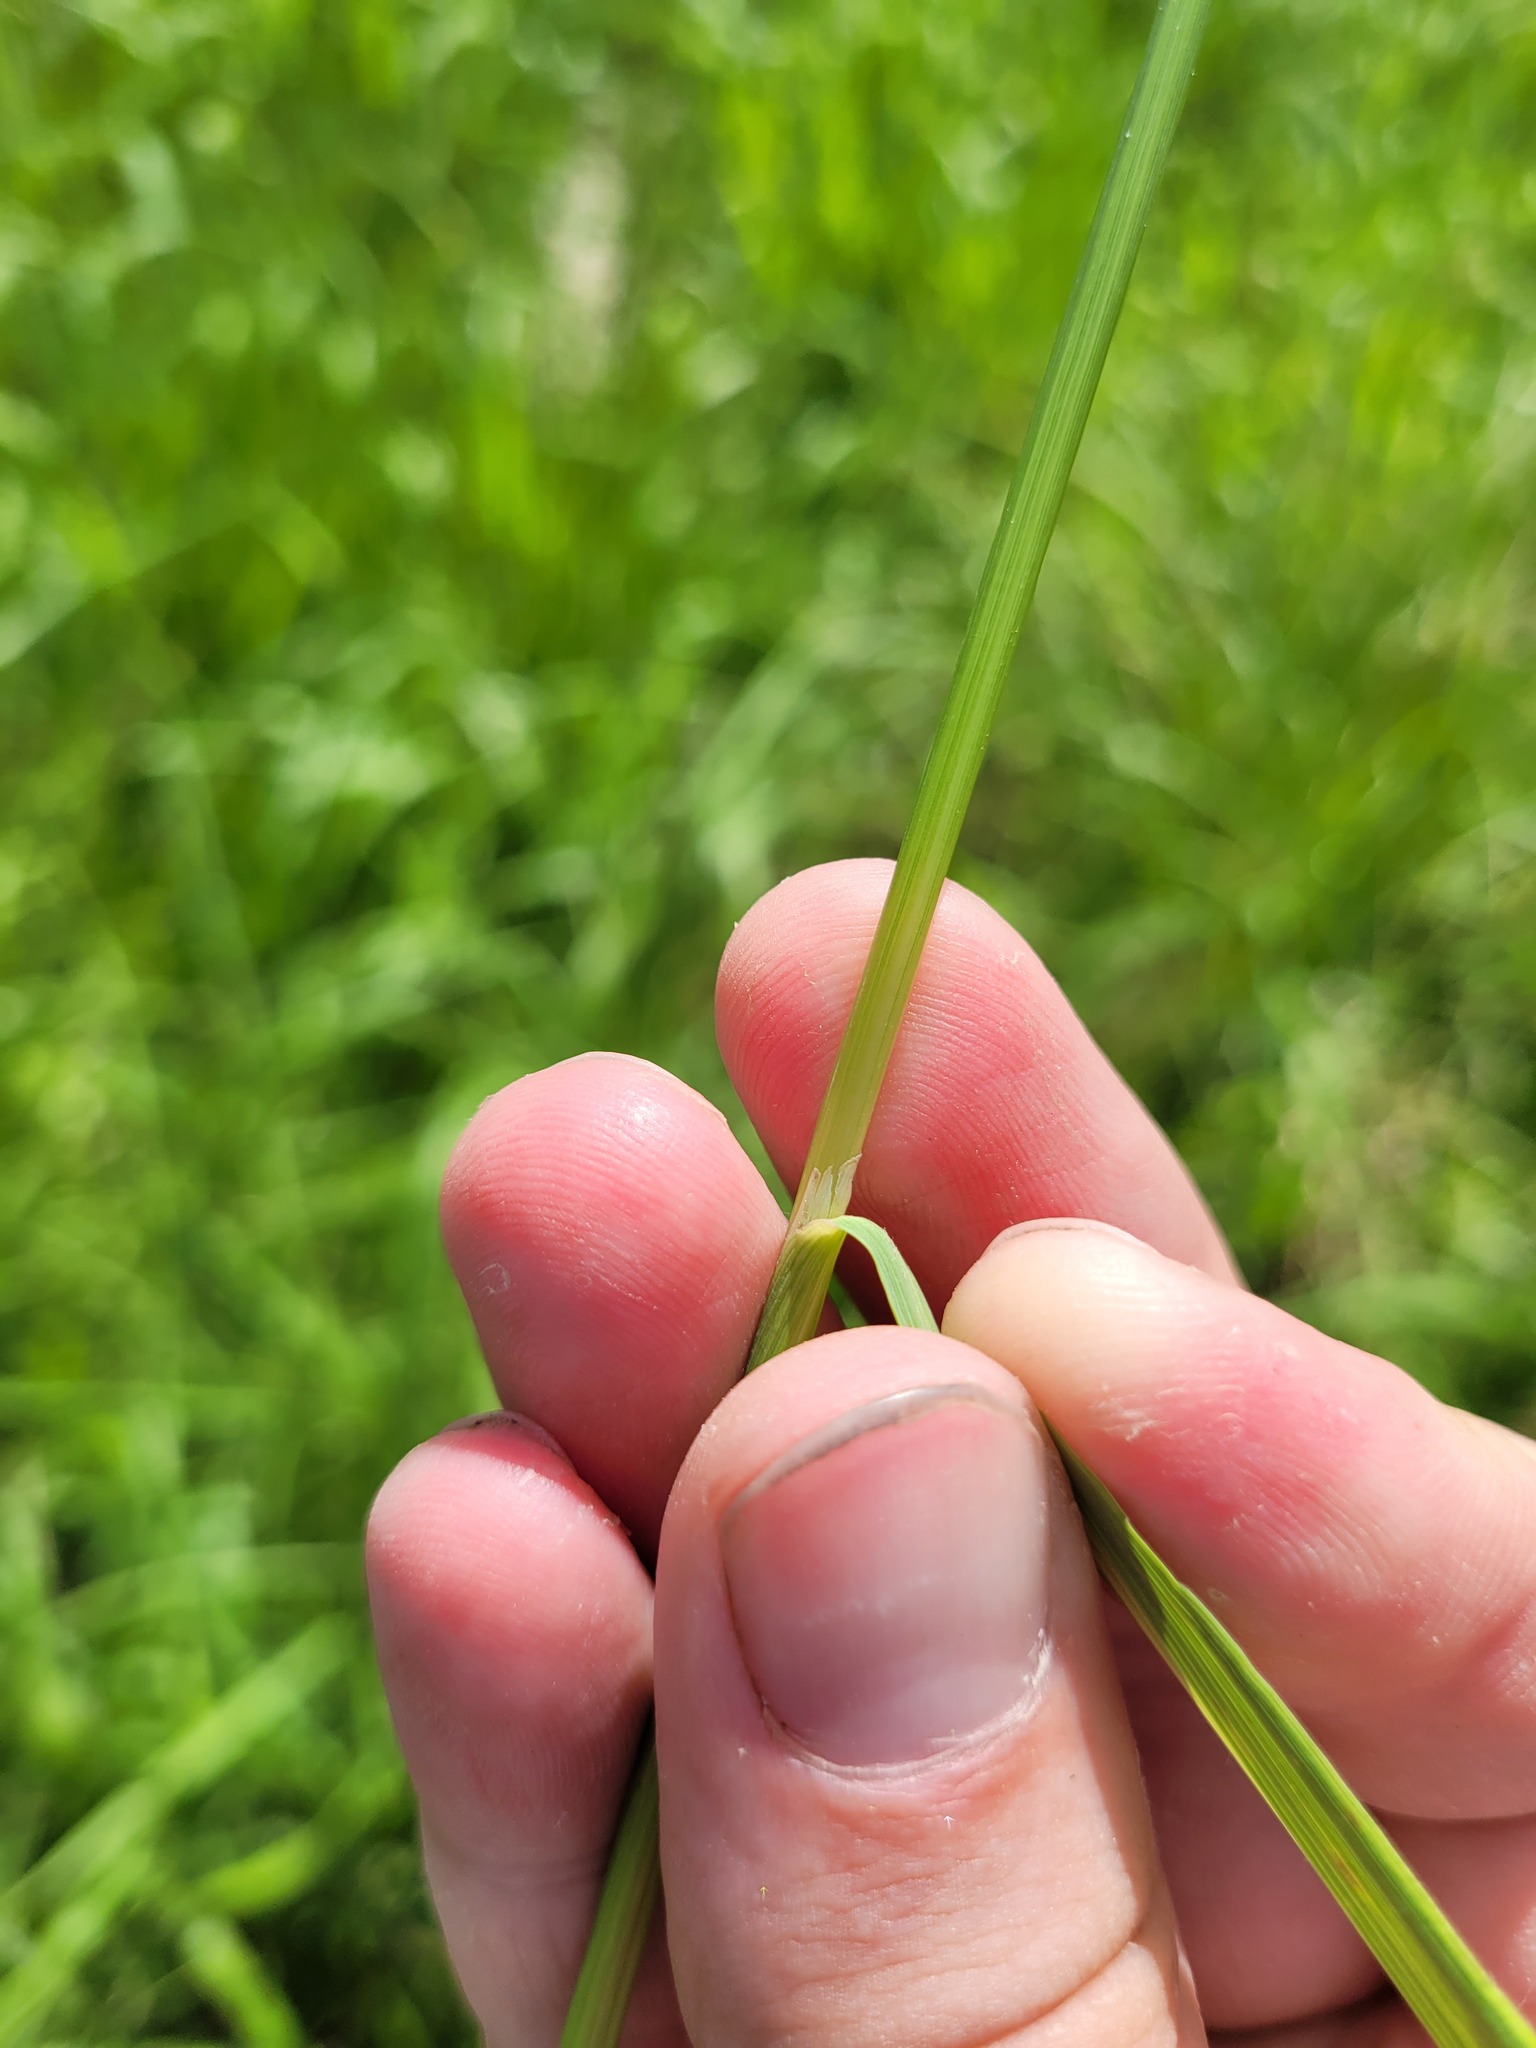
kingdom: Plantae
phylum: Tracheophyta
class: Liliopsida
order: Poales
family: Poaceae
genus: Calamagrostis
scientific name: Calamagrostis canescens
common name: Purple small-reed
